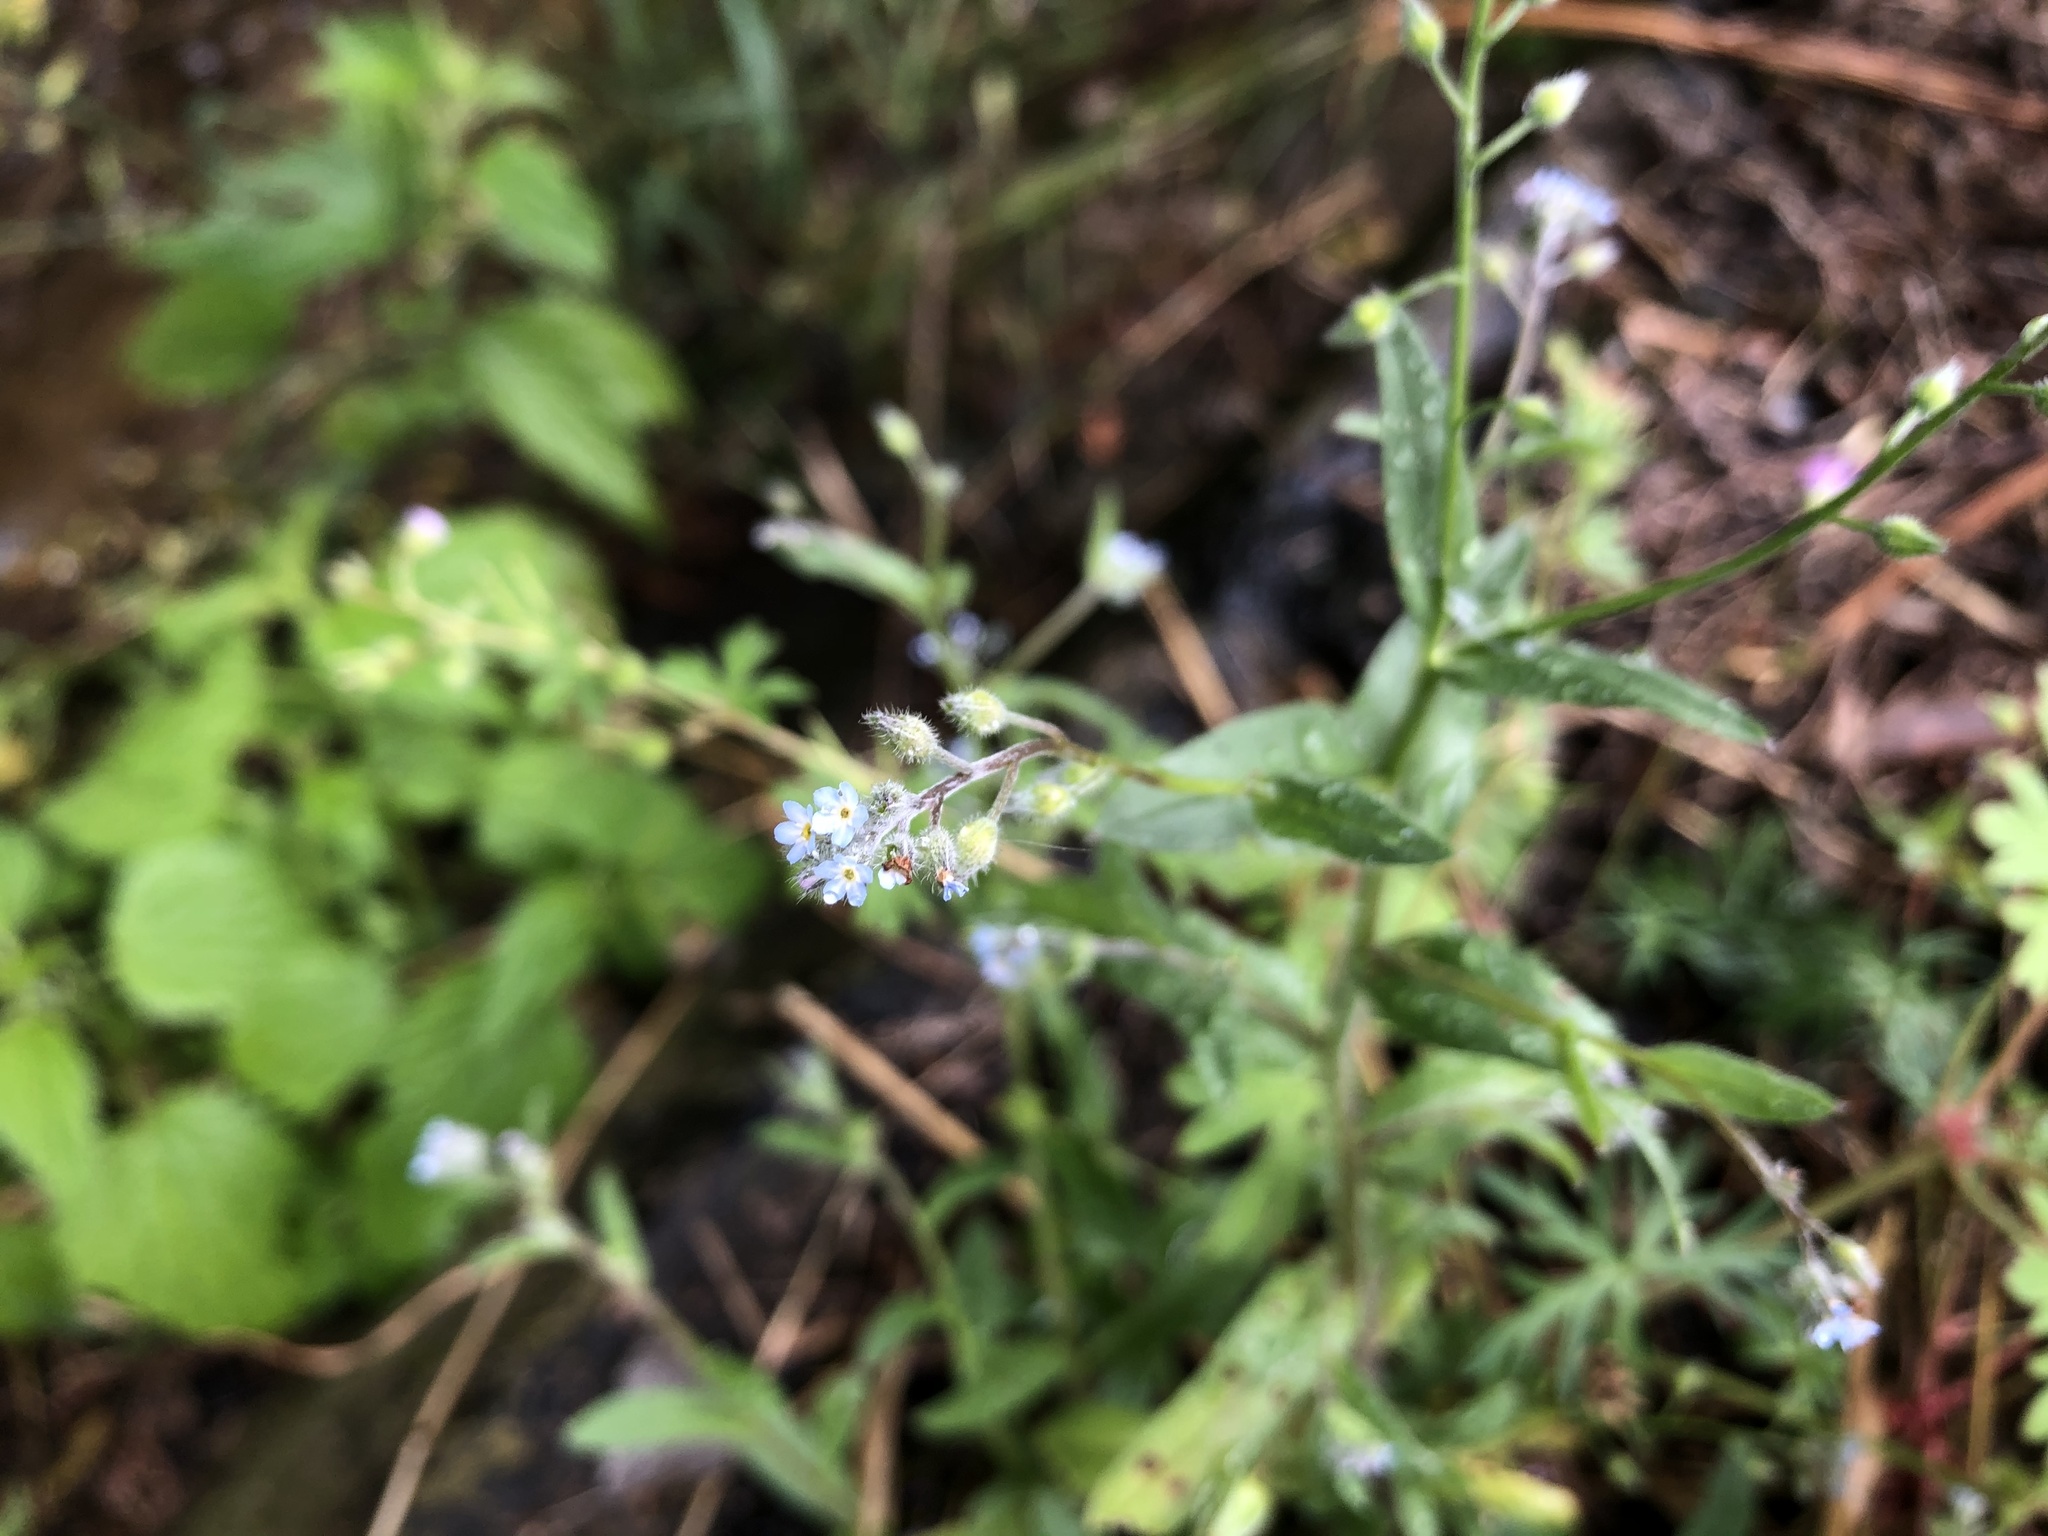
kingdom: Plantae
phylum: Tracheophyta
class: Magnoliopsida
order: Boraginales
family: Boraginaceae
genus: Myosotis
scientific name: Myosotis arvensis
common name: Field forget-me-not
